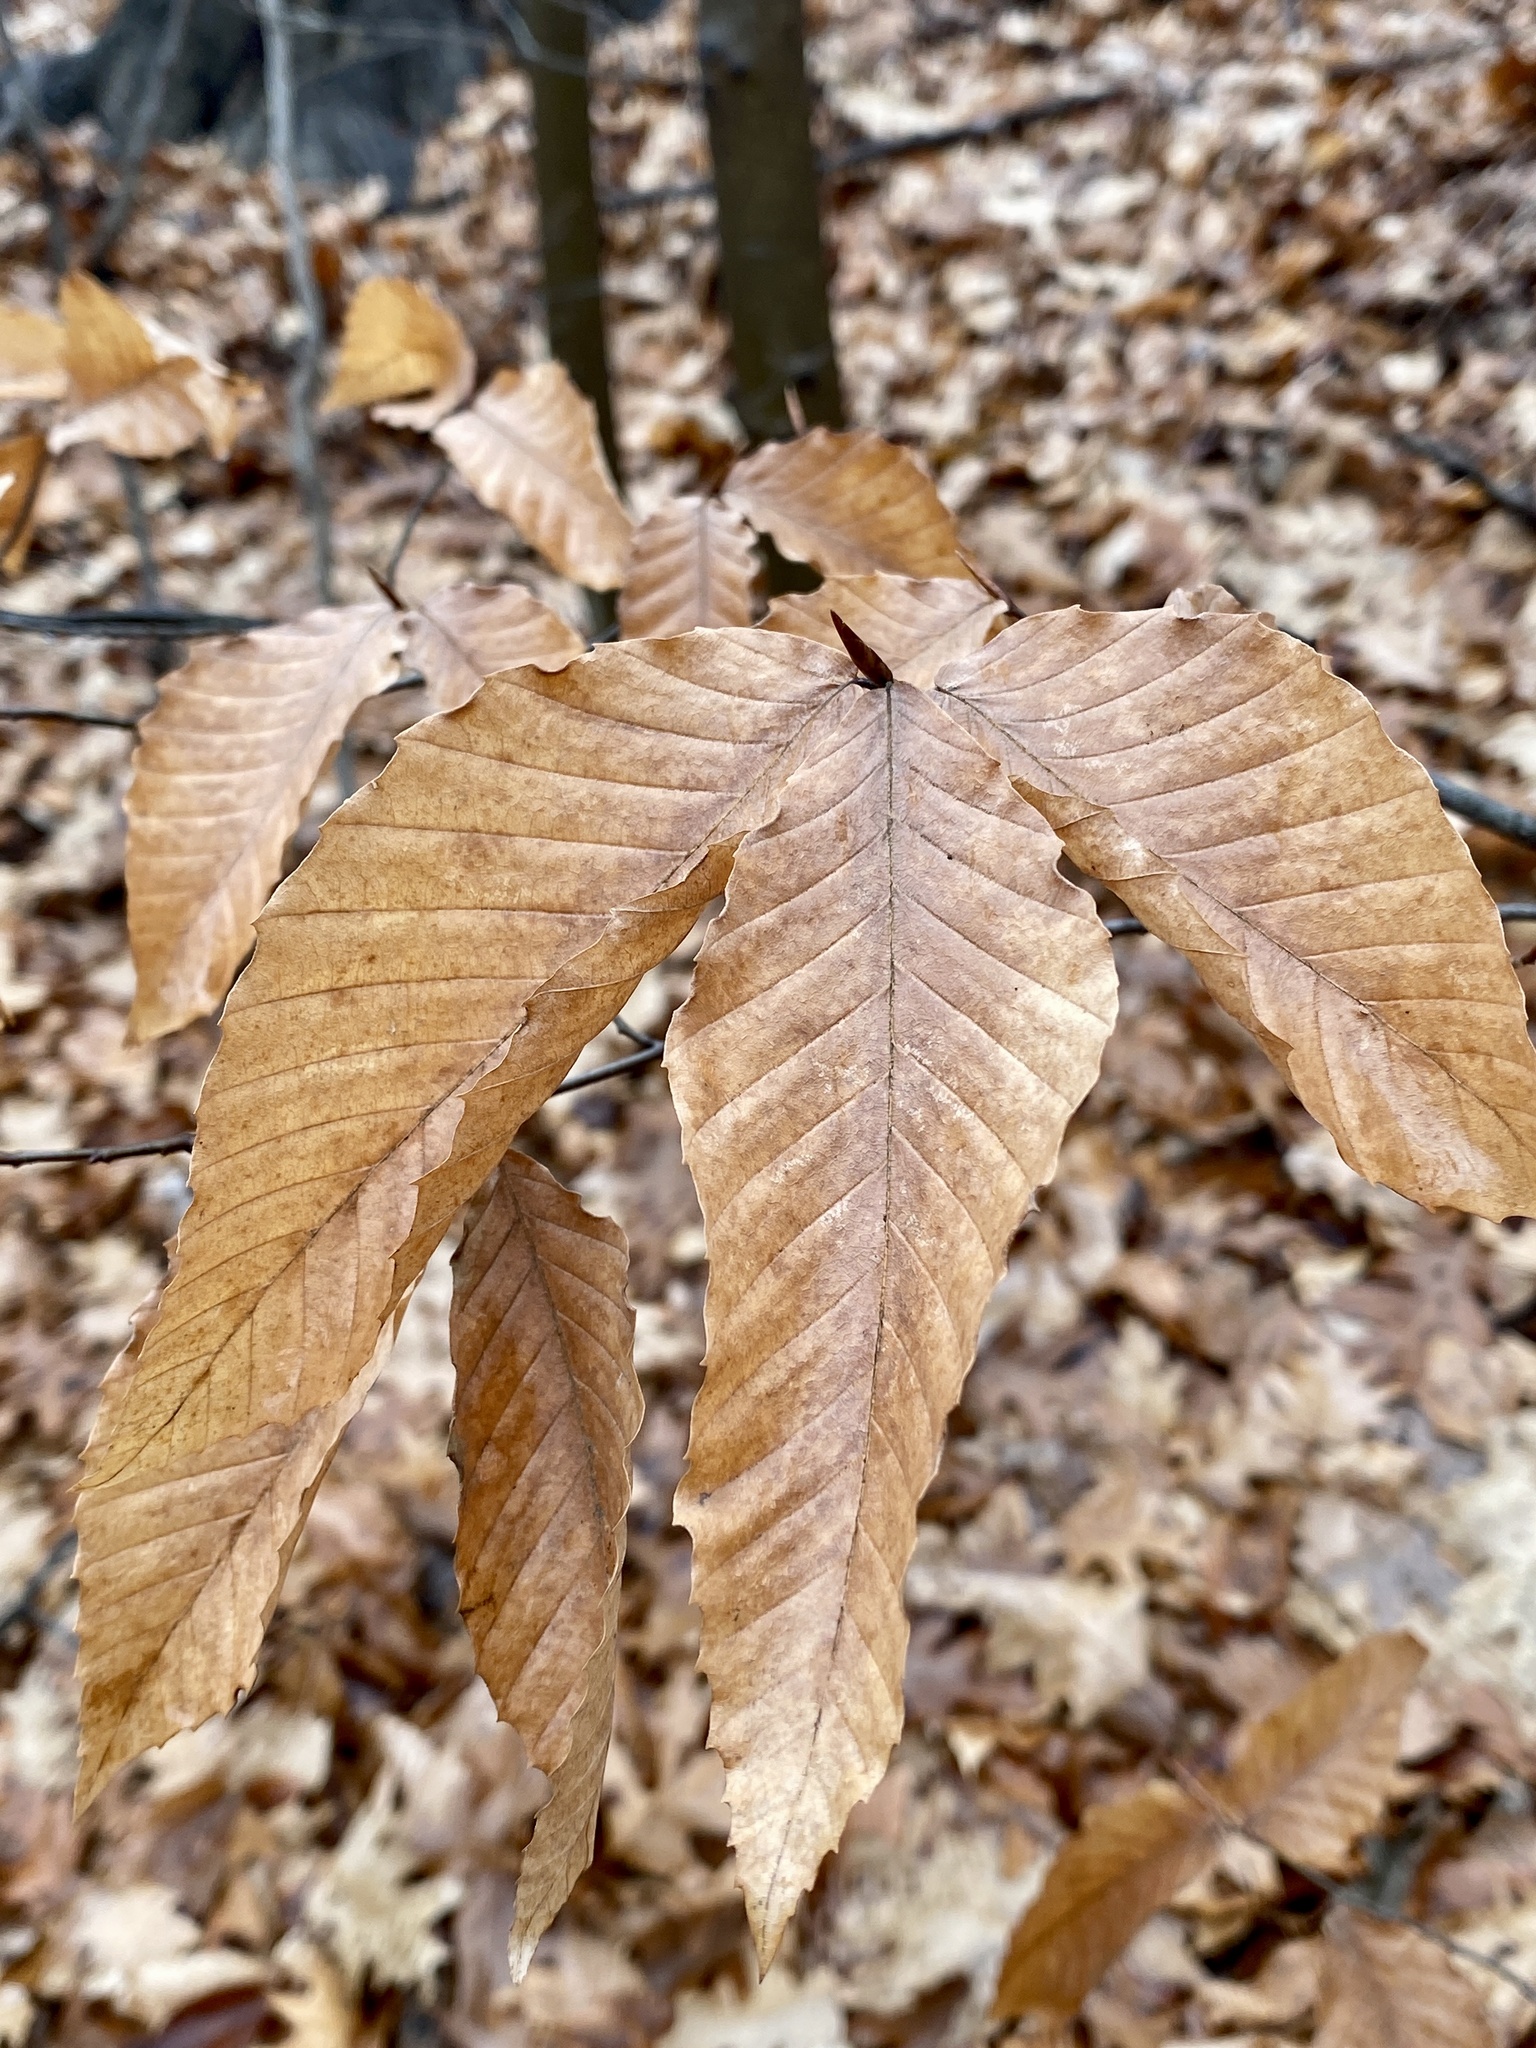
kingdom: Plantae
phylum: Tracheophyta
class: Magnoliopsida
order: Fagales
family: Fagaceae
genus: Fagus
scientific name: Fagus grandifolia
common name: American beech
